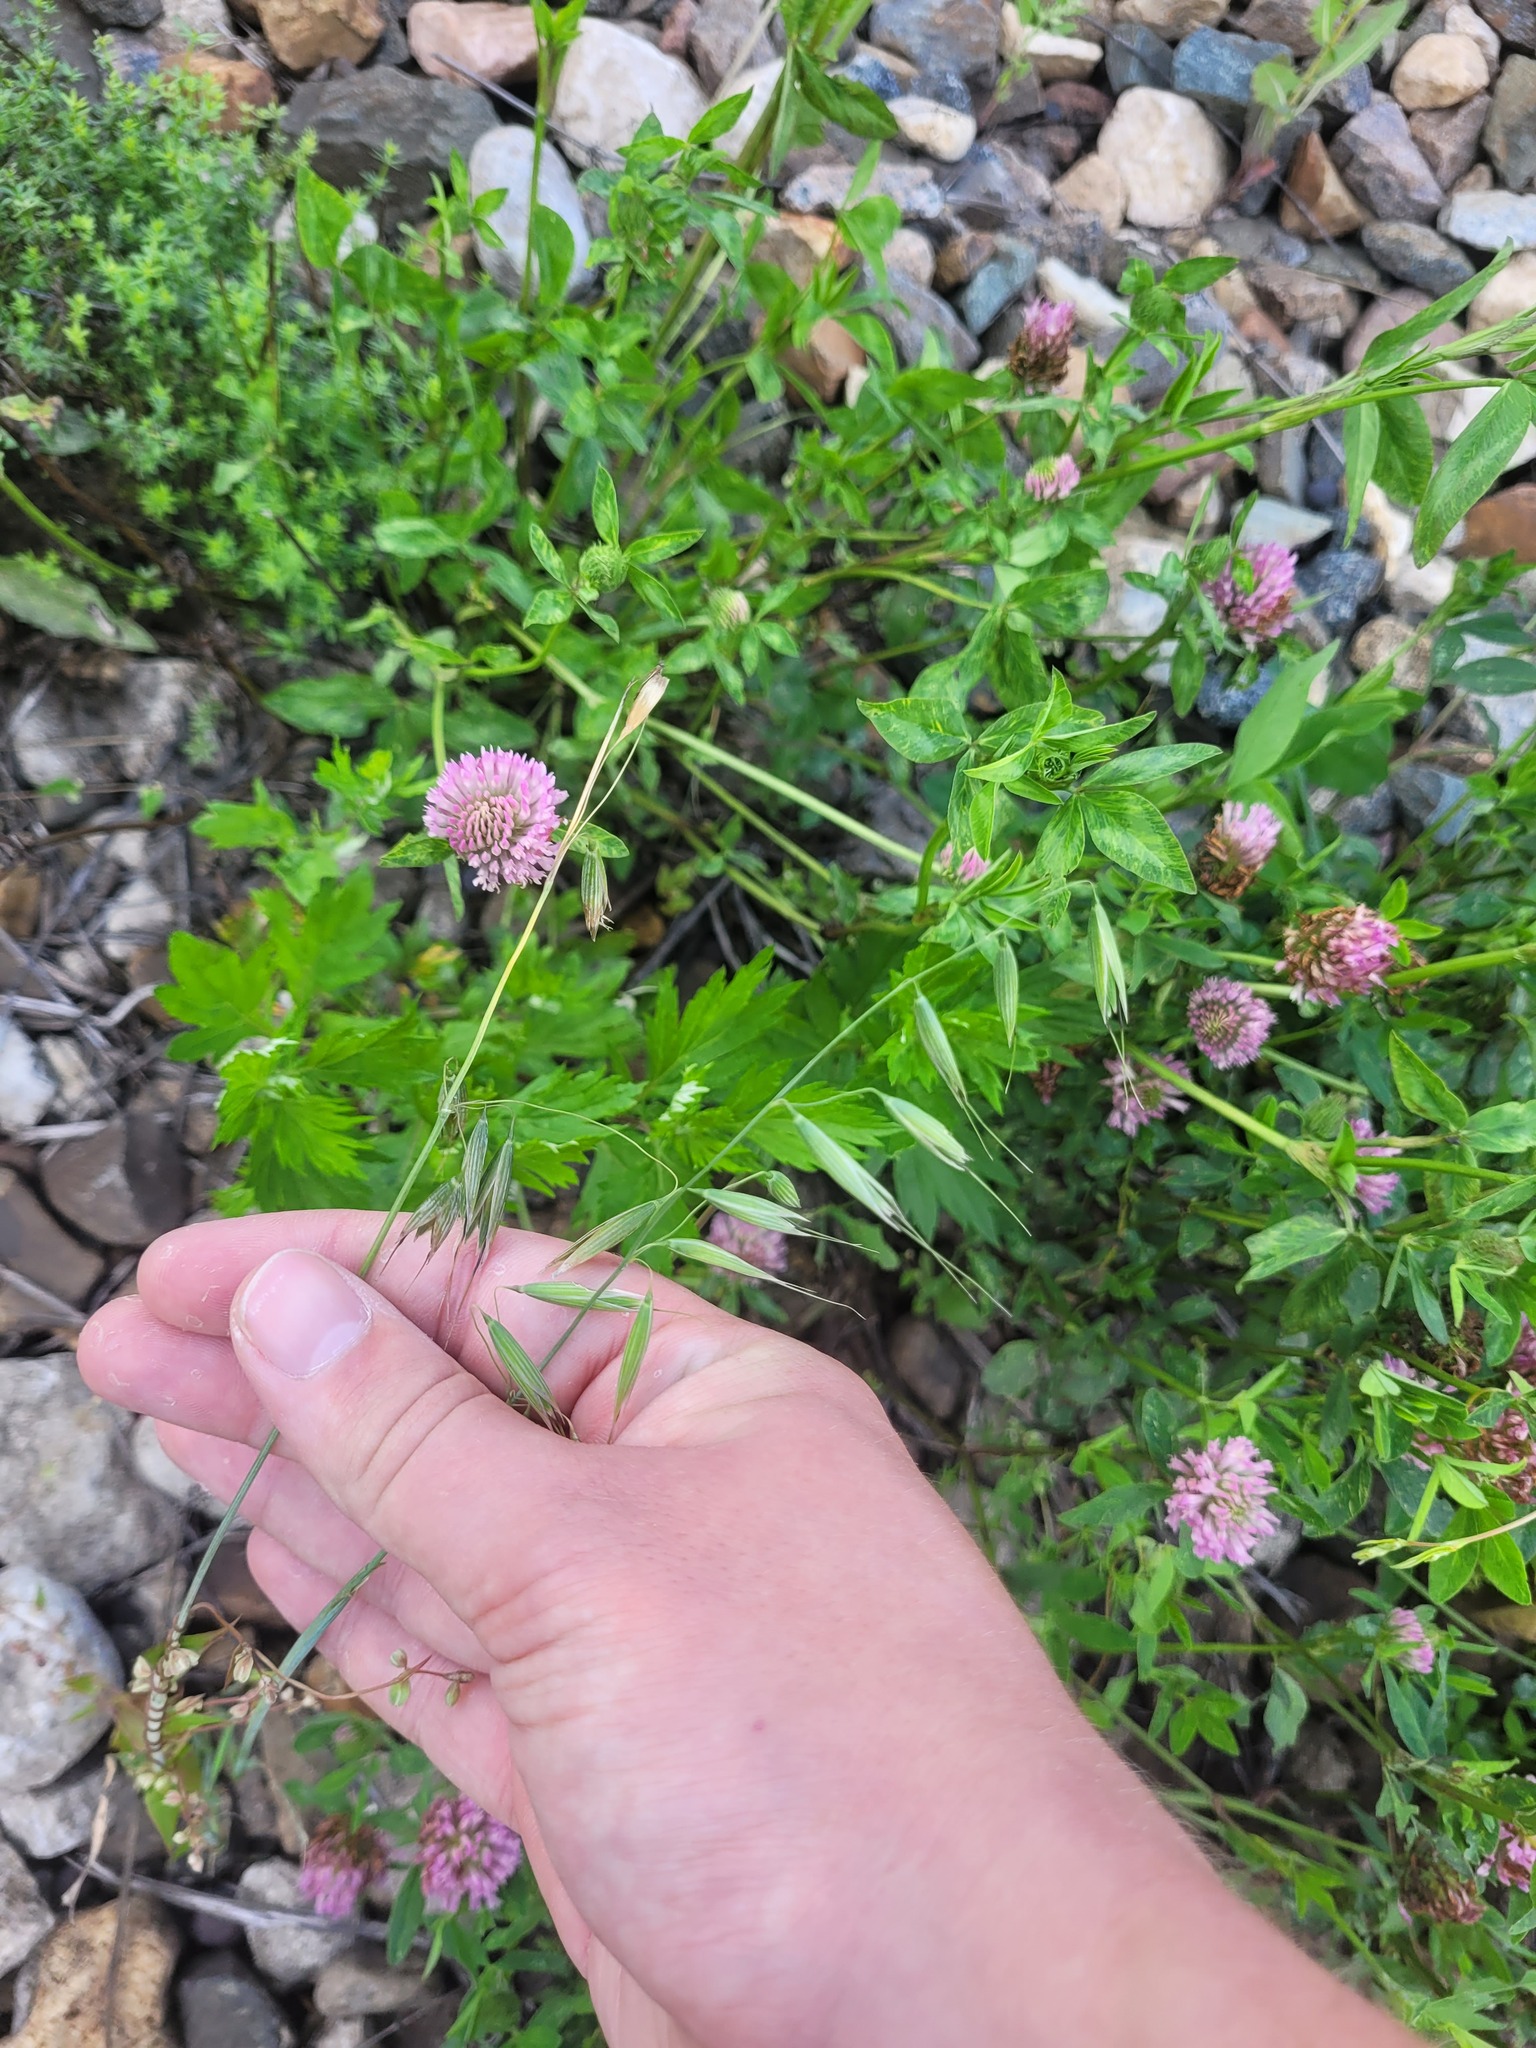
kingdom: Plantae
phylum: Tracheophyta
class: Liliopsida
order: Poales
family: Poaceae
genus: Avena
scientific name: Avena fatua
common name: Wild oat
